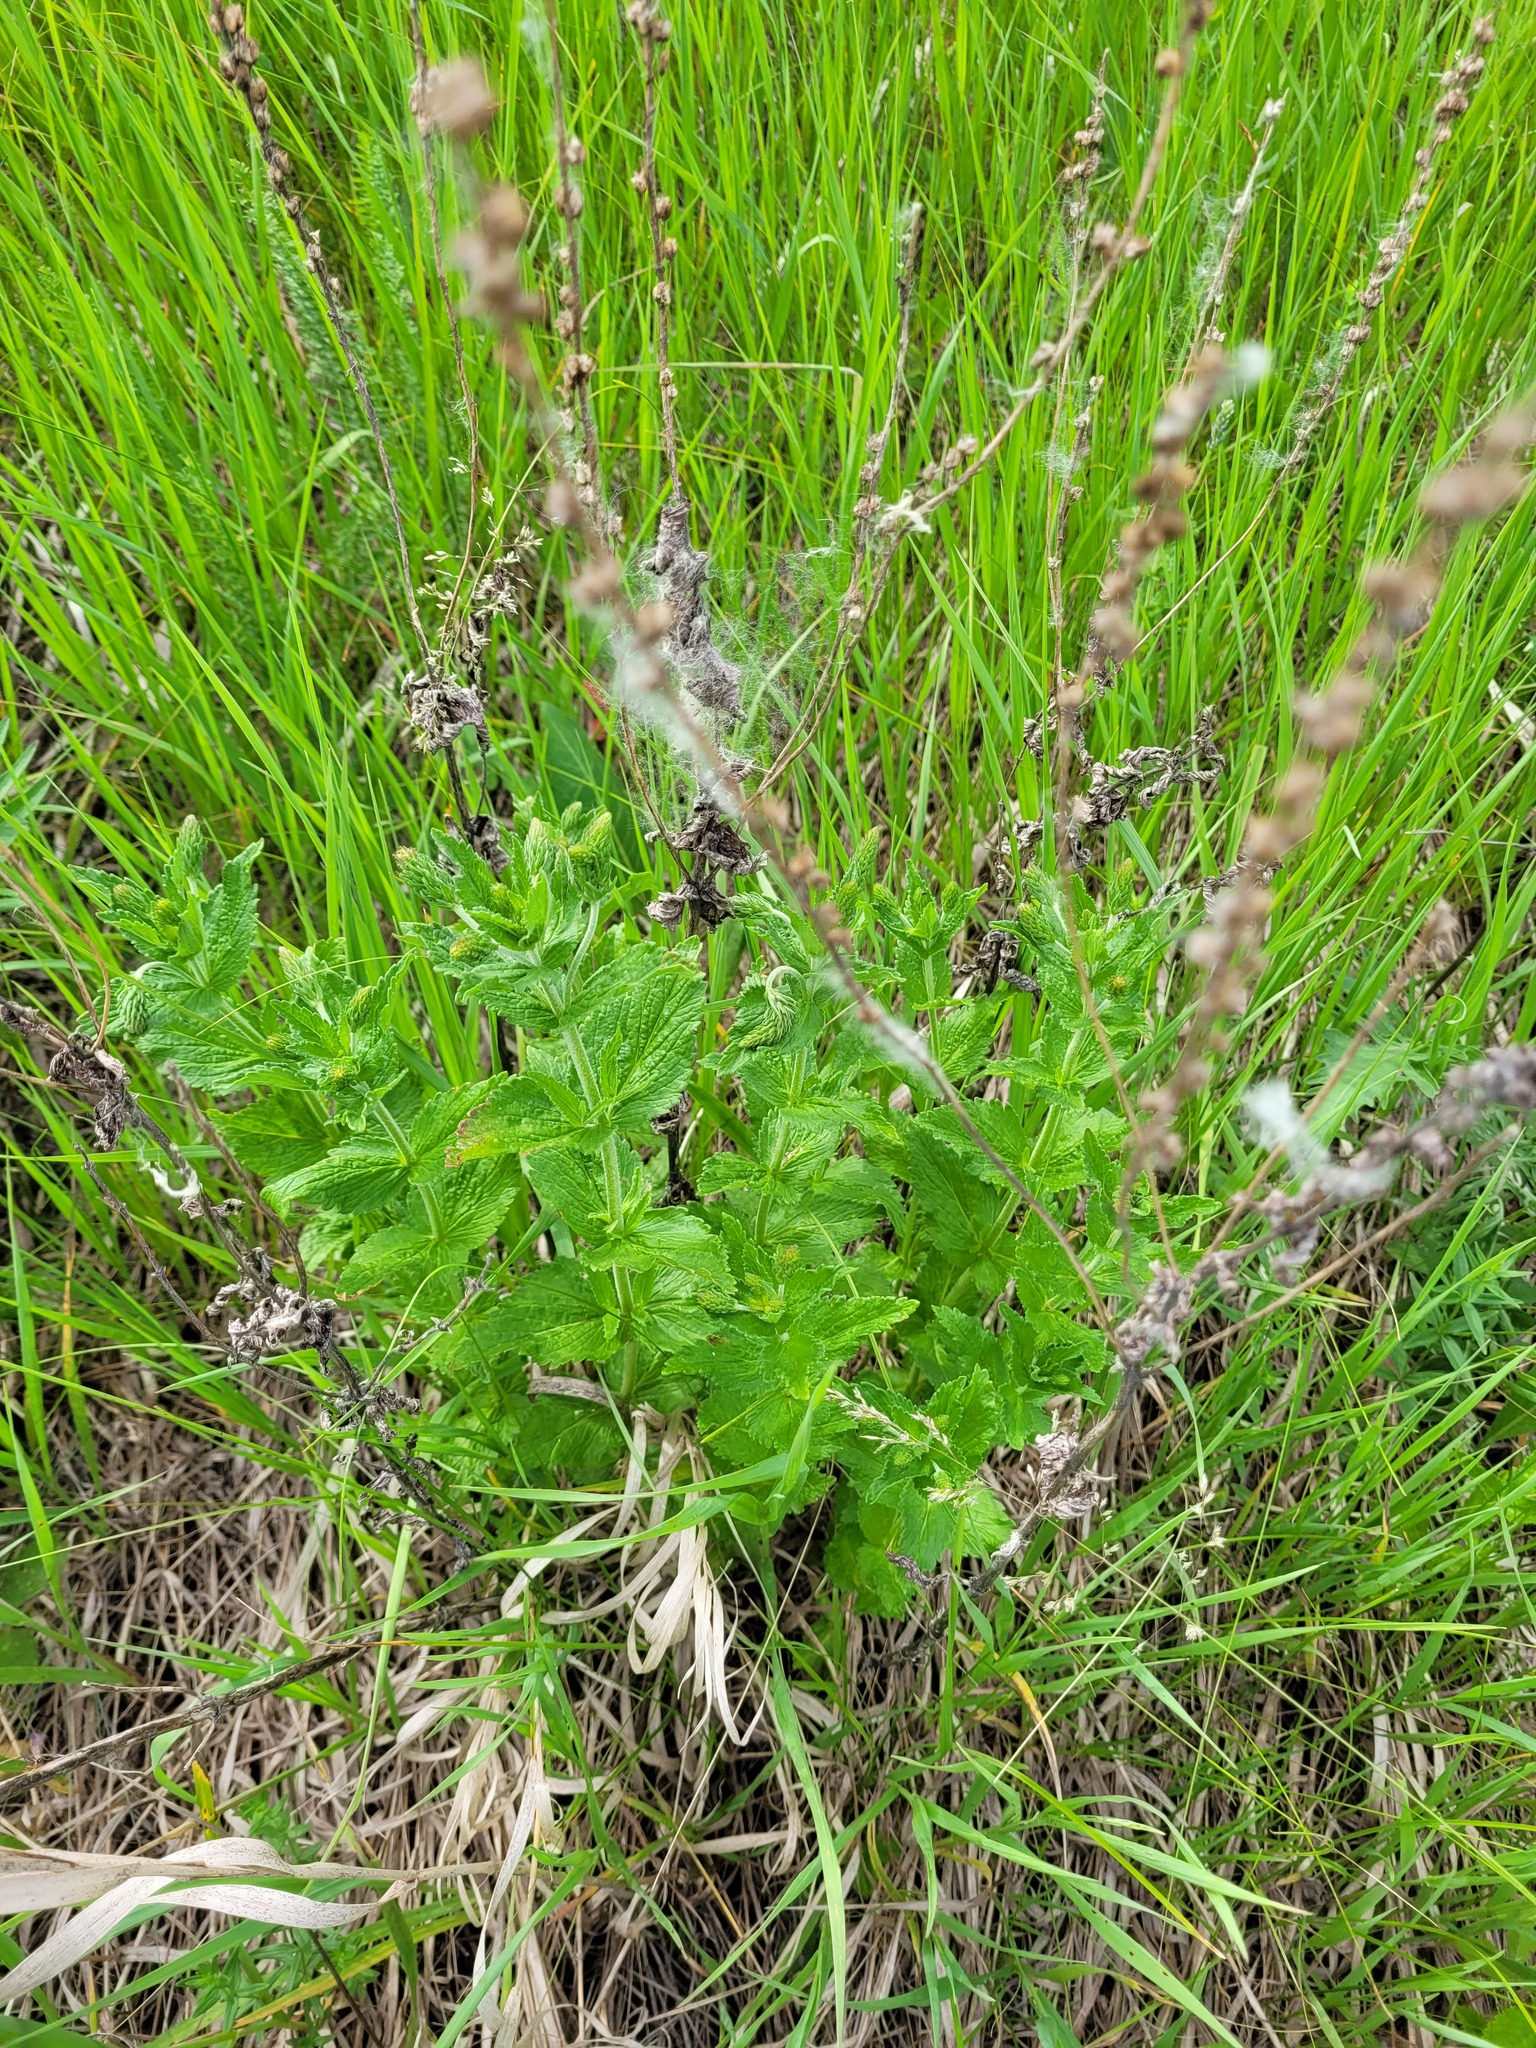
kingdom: Plantae
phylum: Tracheophyta
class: Magnoliopsida
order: Lamiales
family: Plantaginaceae
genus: Veronica
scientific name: Veronica teucrium
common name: Large speedwell
